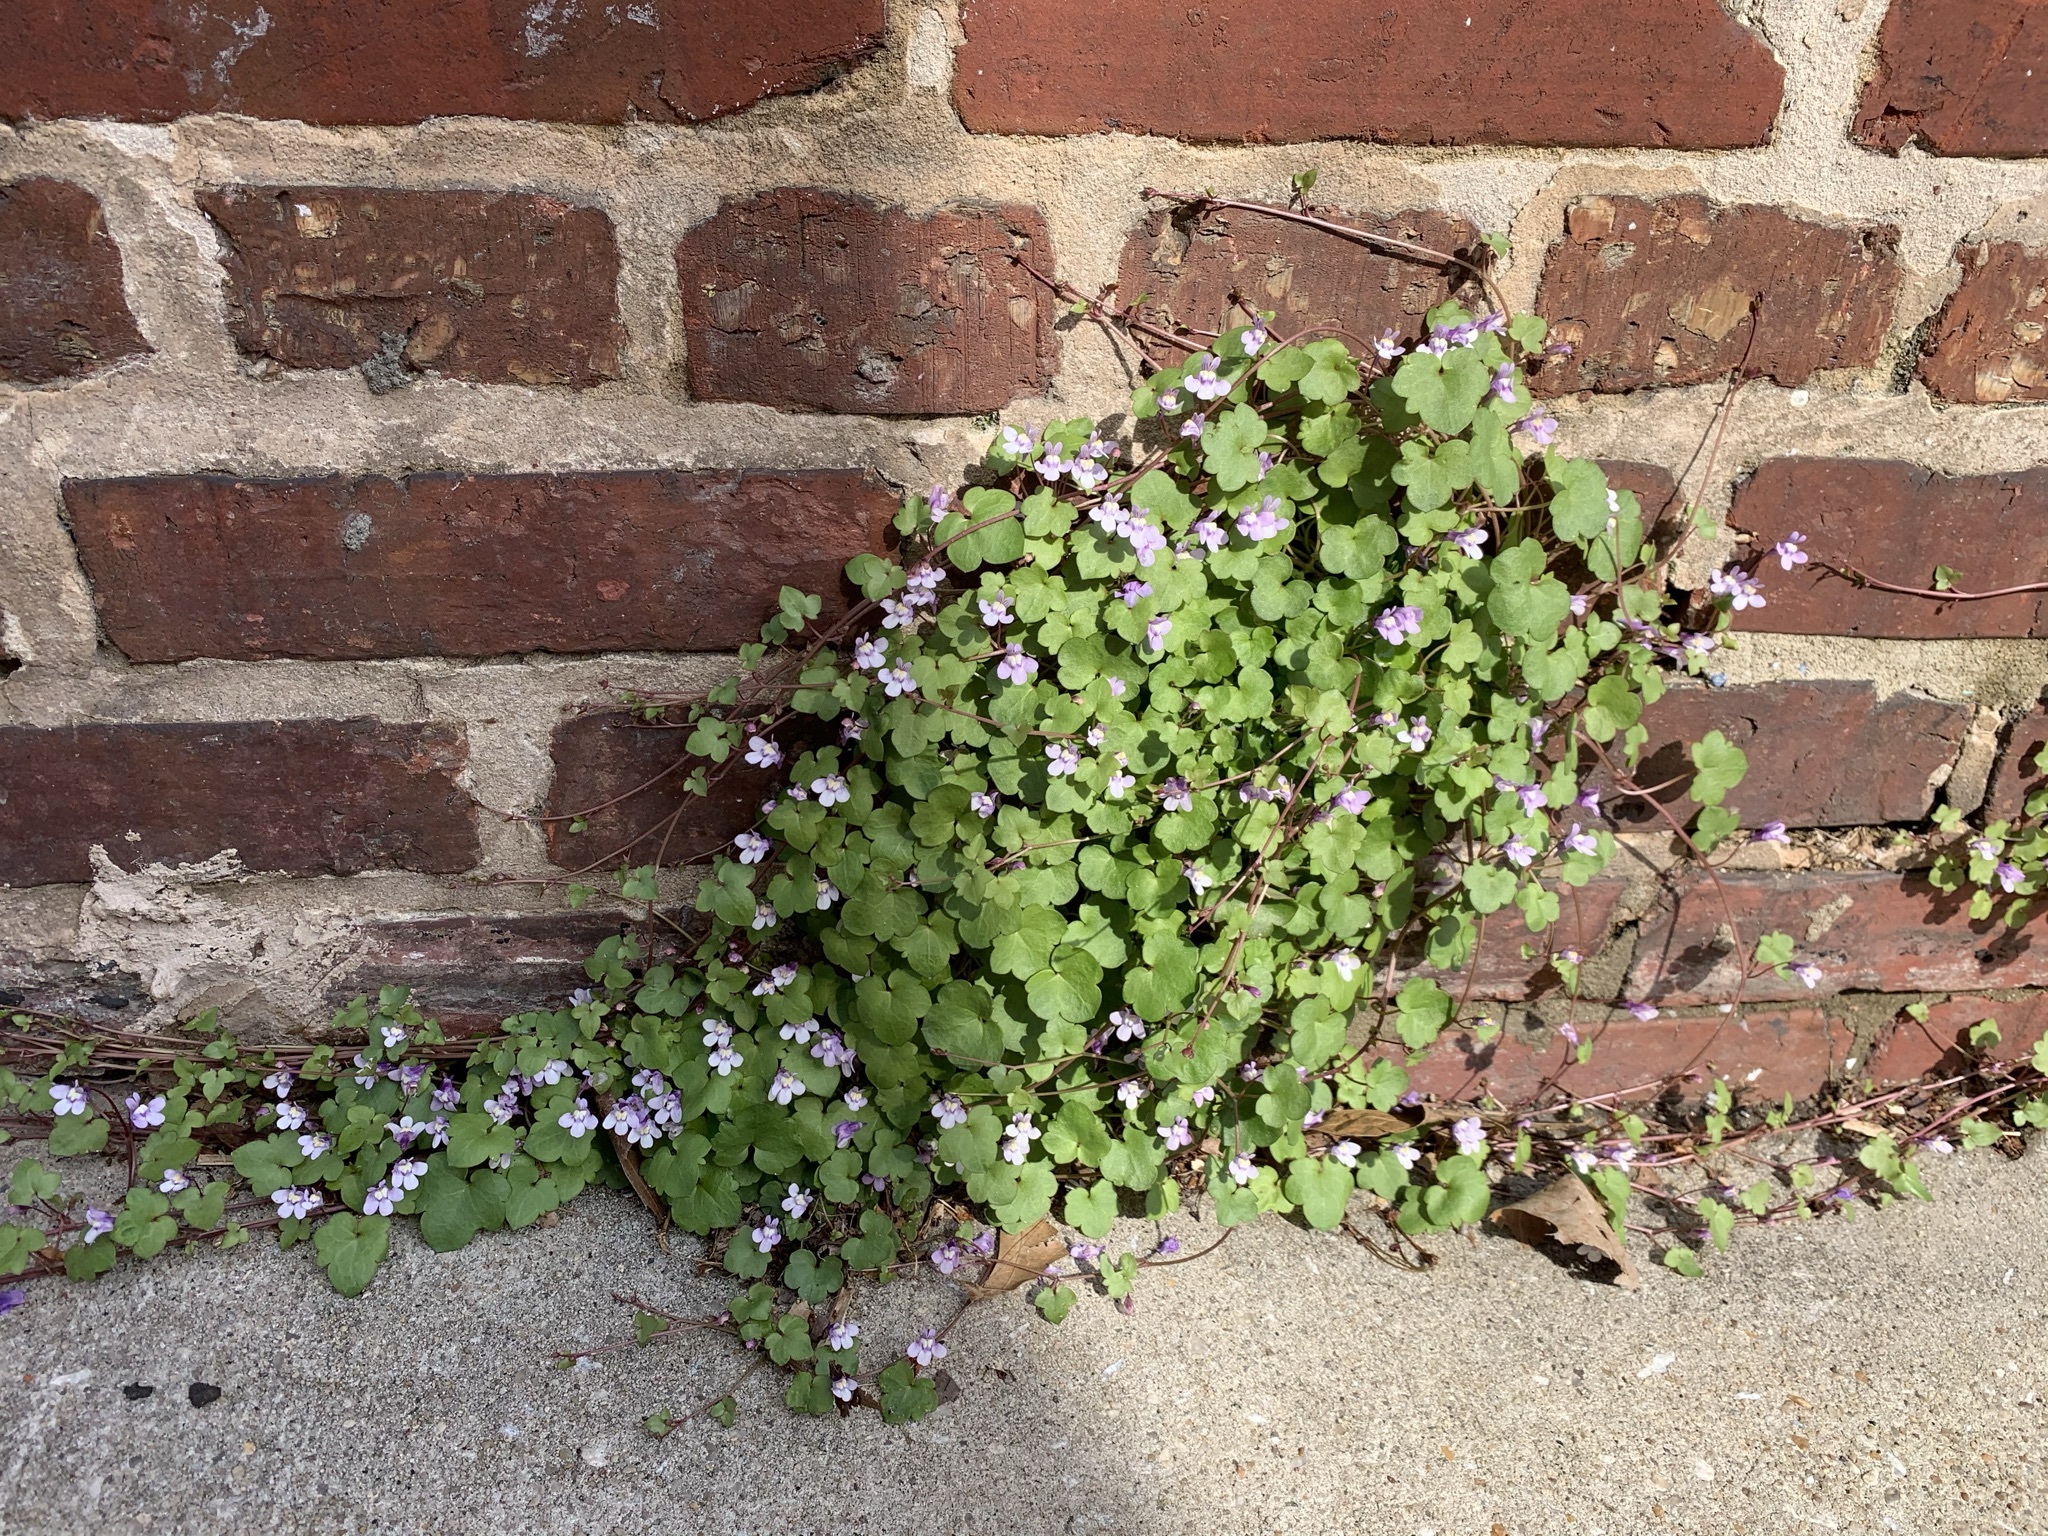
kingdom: Plantae
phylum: Tracheophyta
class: Magnoliopsida
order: Lamiales
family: Plantaginaceae
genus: Cymbalaria
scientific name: Cymbalaria muralis
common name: Ivy-leaved toadflax
